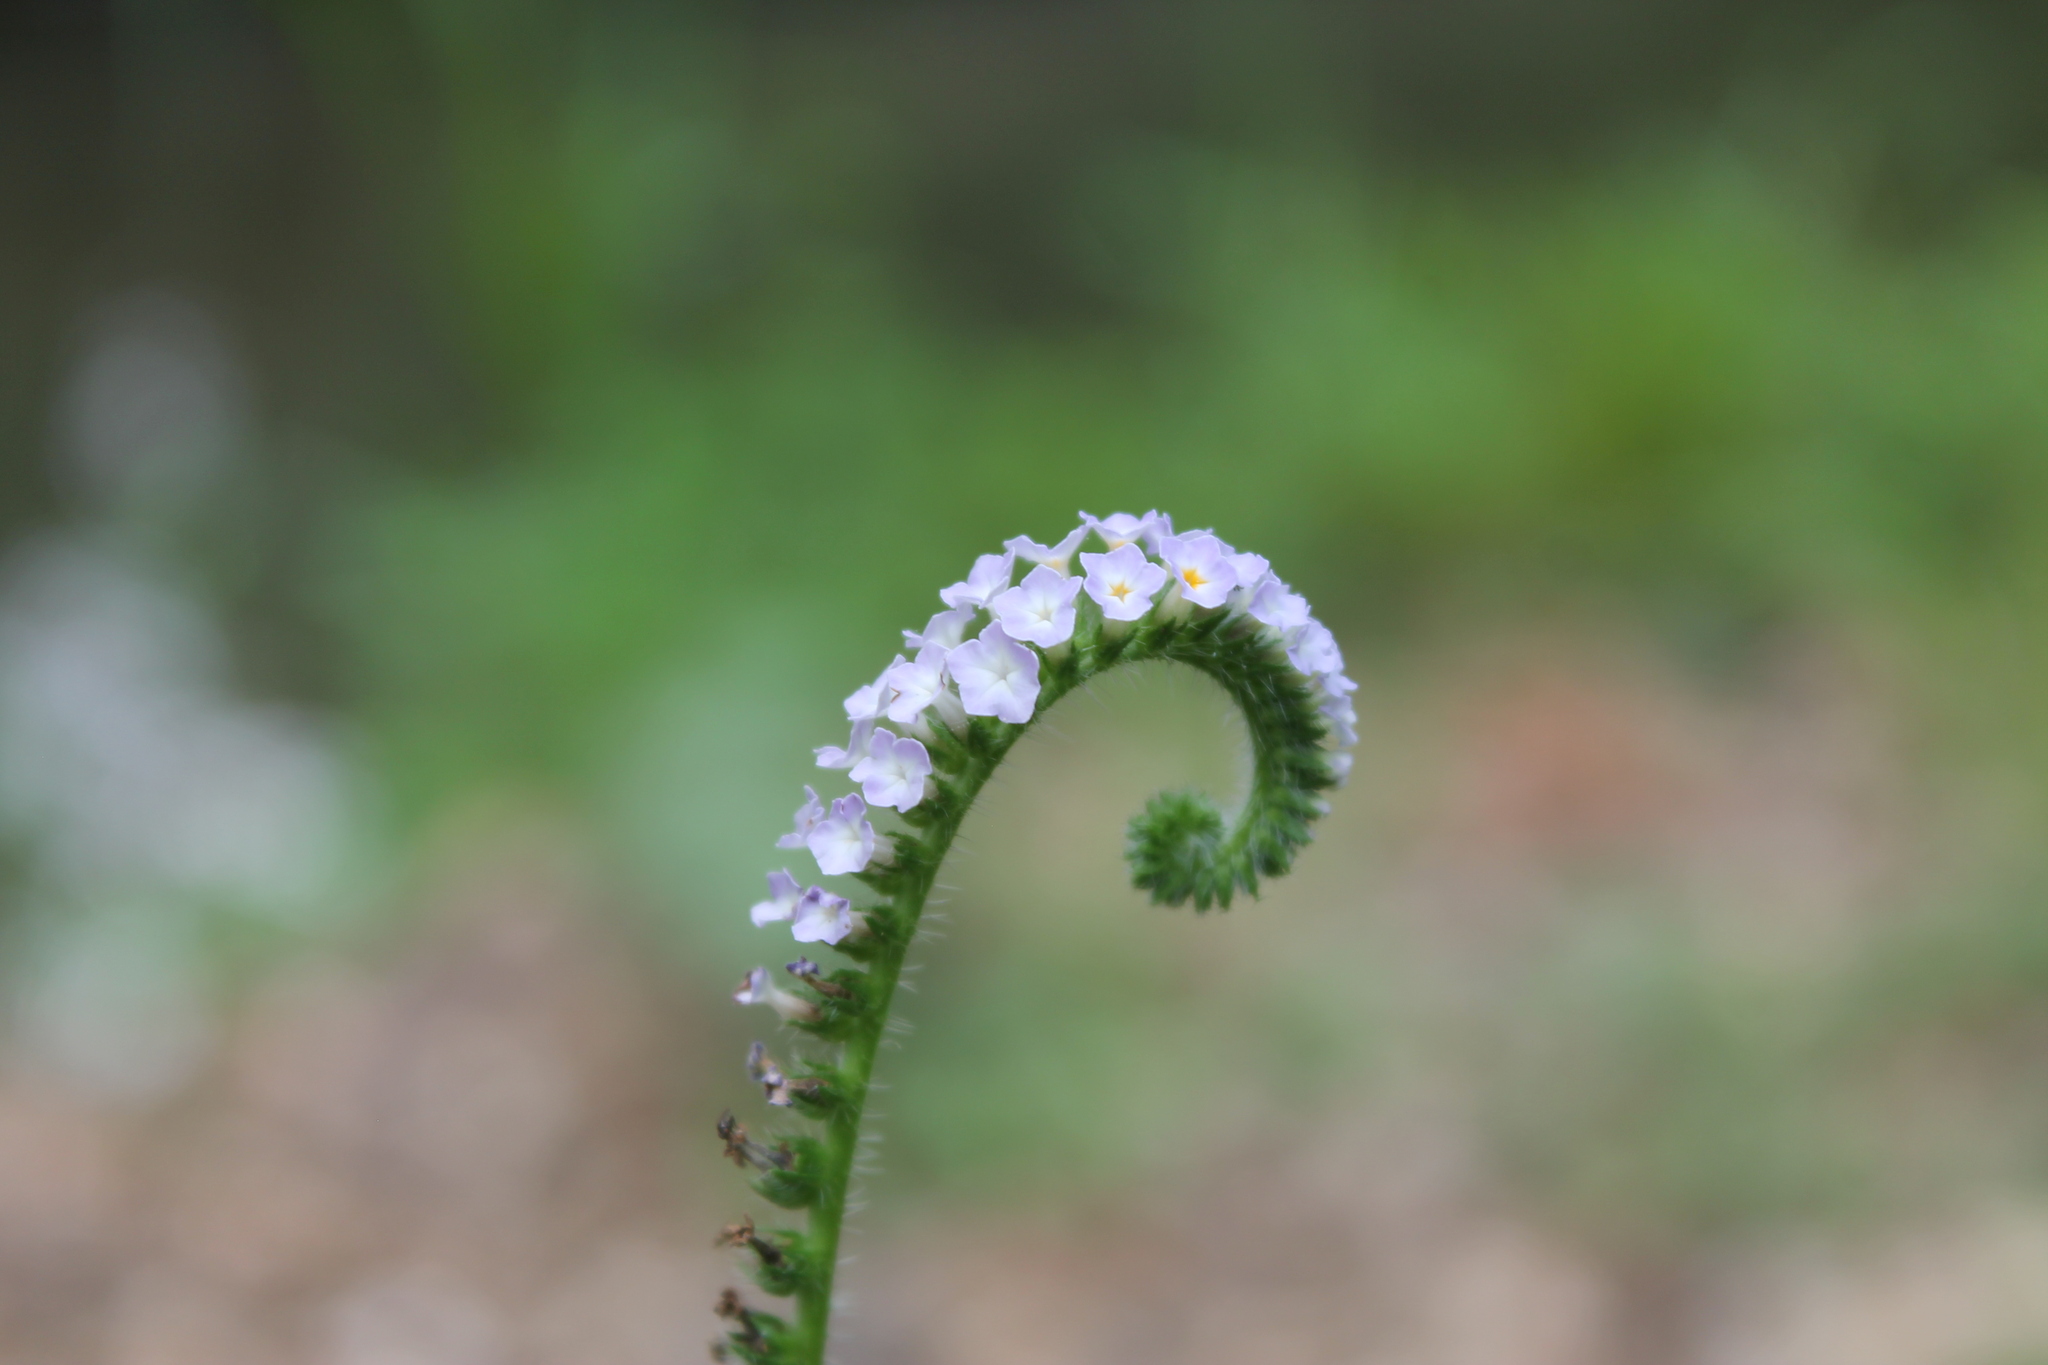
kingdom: Plantae
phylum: Tracheophyta
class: Magnoliopsida
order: Boraginales
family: Heliotropiaceae
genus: Heliotropium
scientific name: Heliotropium indicum
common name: Indian heliotrope
